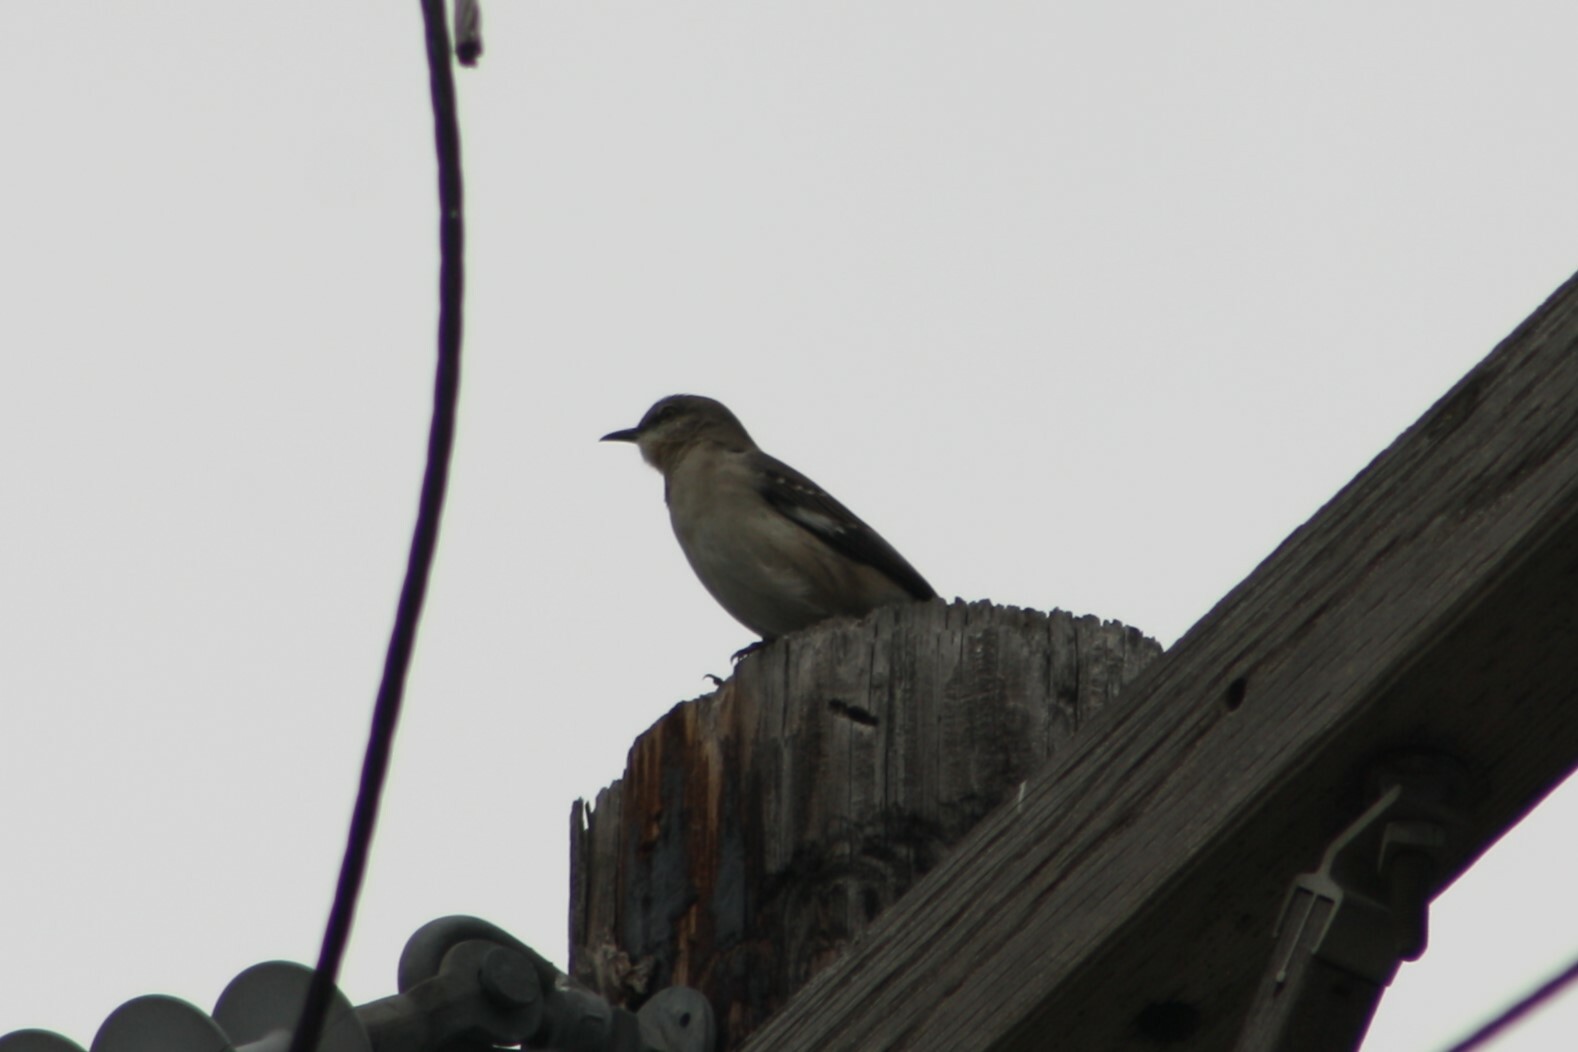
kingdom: Animalia
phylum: Chordata
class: Aves
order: Passeriformes
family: Mimidae
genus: Mimus
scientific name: Mimus polyglottos
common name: Northern mockingbird
